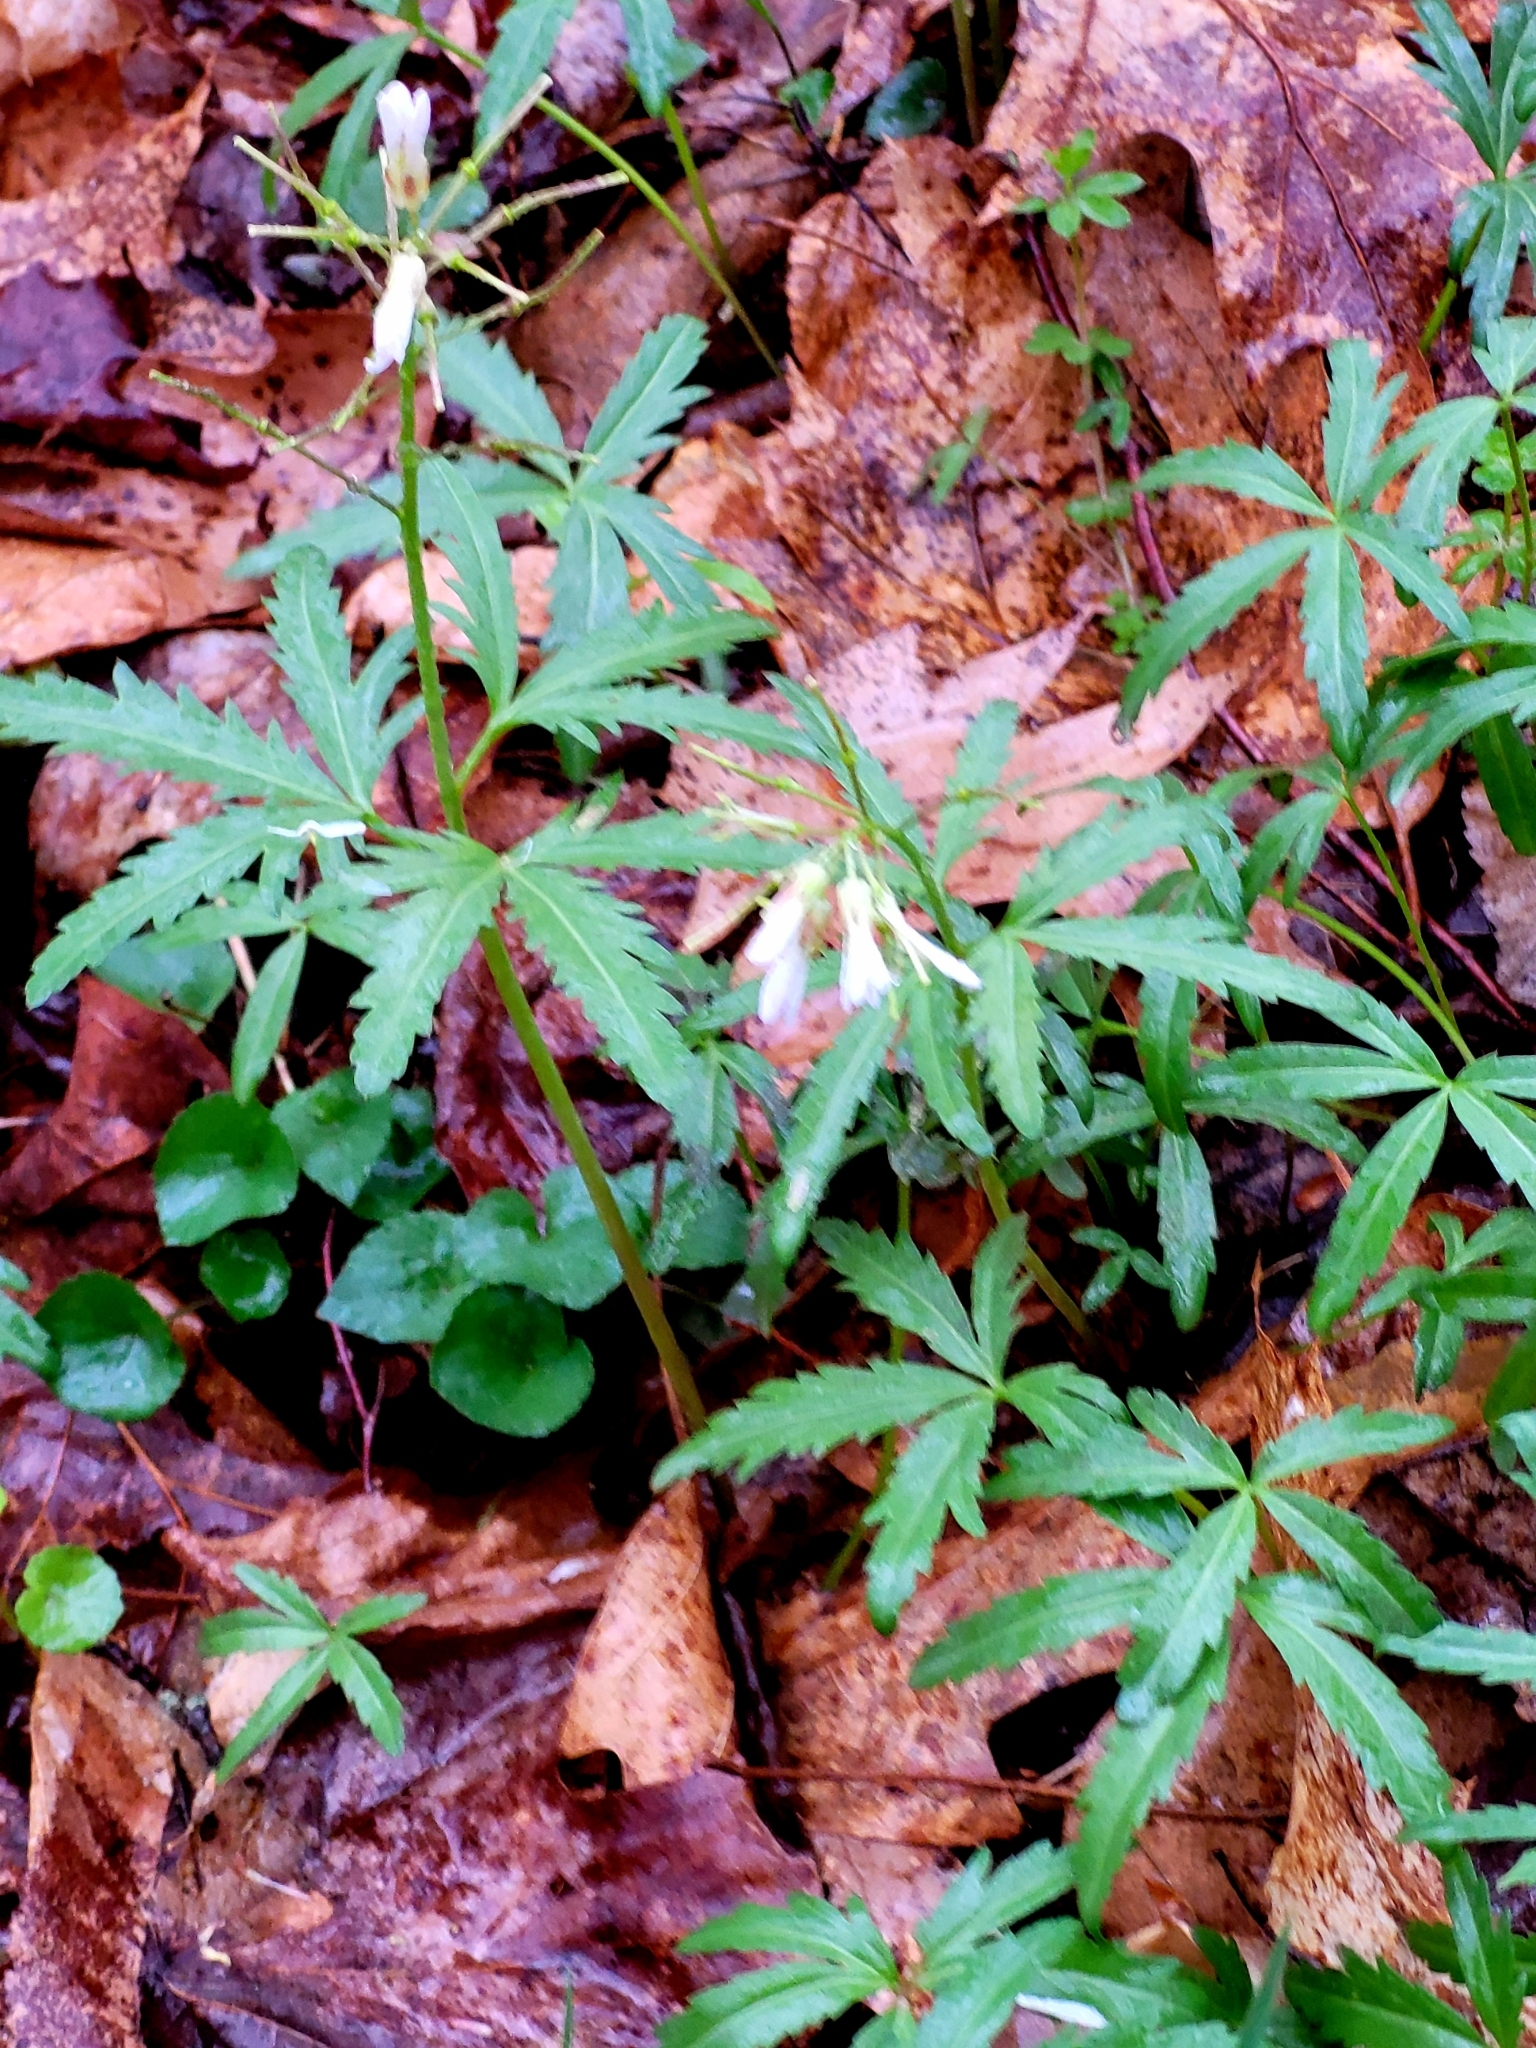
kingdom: Plantae
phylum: Tracheophyta
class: Magnoliopsida
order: Brassicales
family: Brassicaceae
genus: Cardamine
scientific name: Cardamine concatenata
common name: Cut-leaf toothcup
